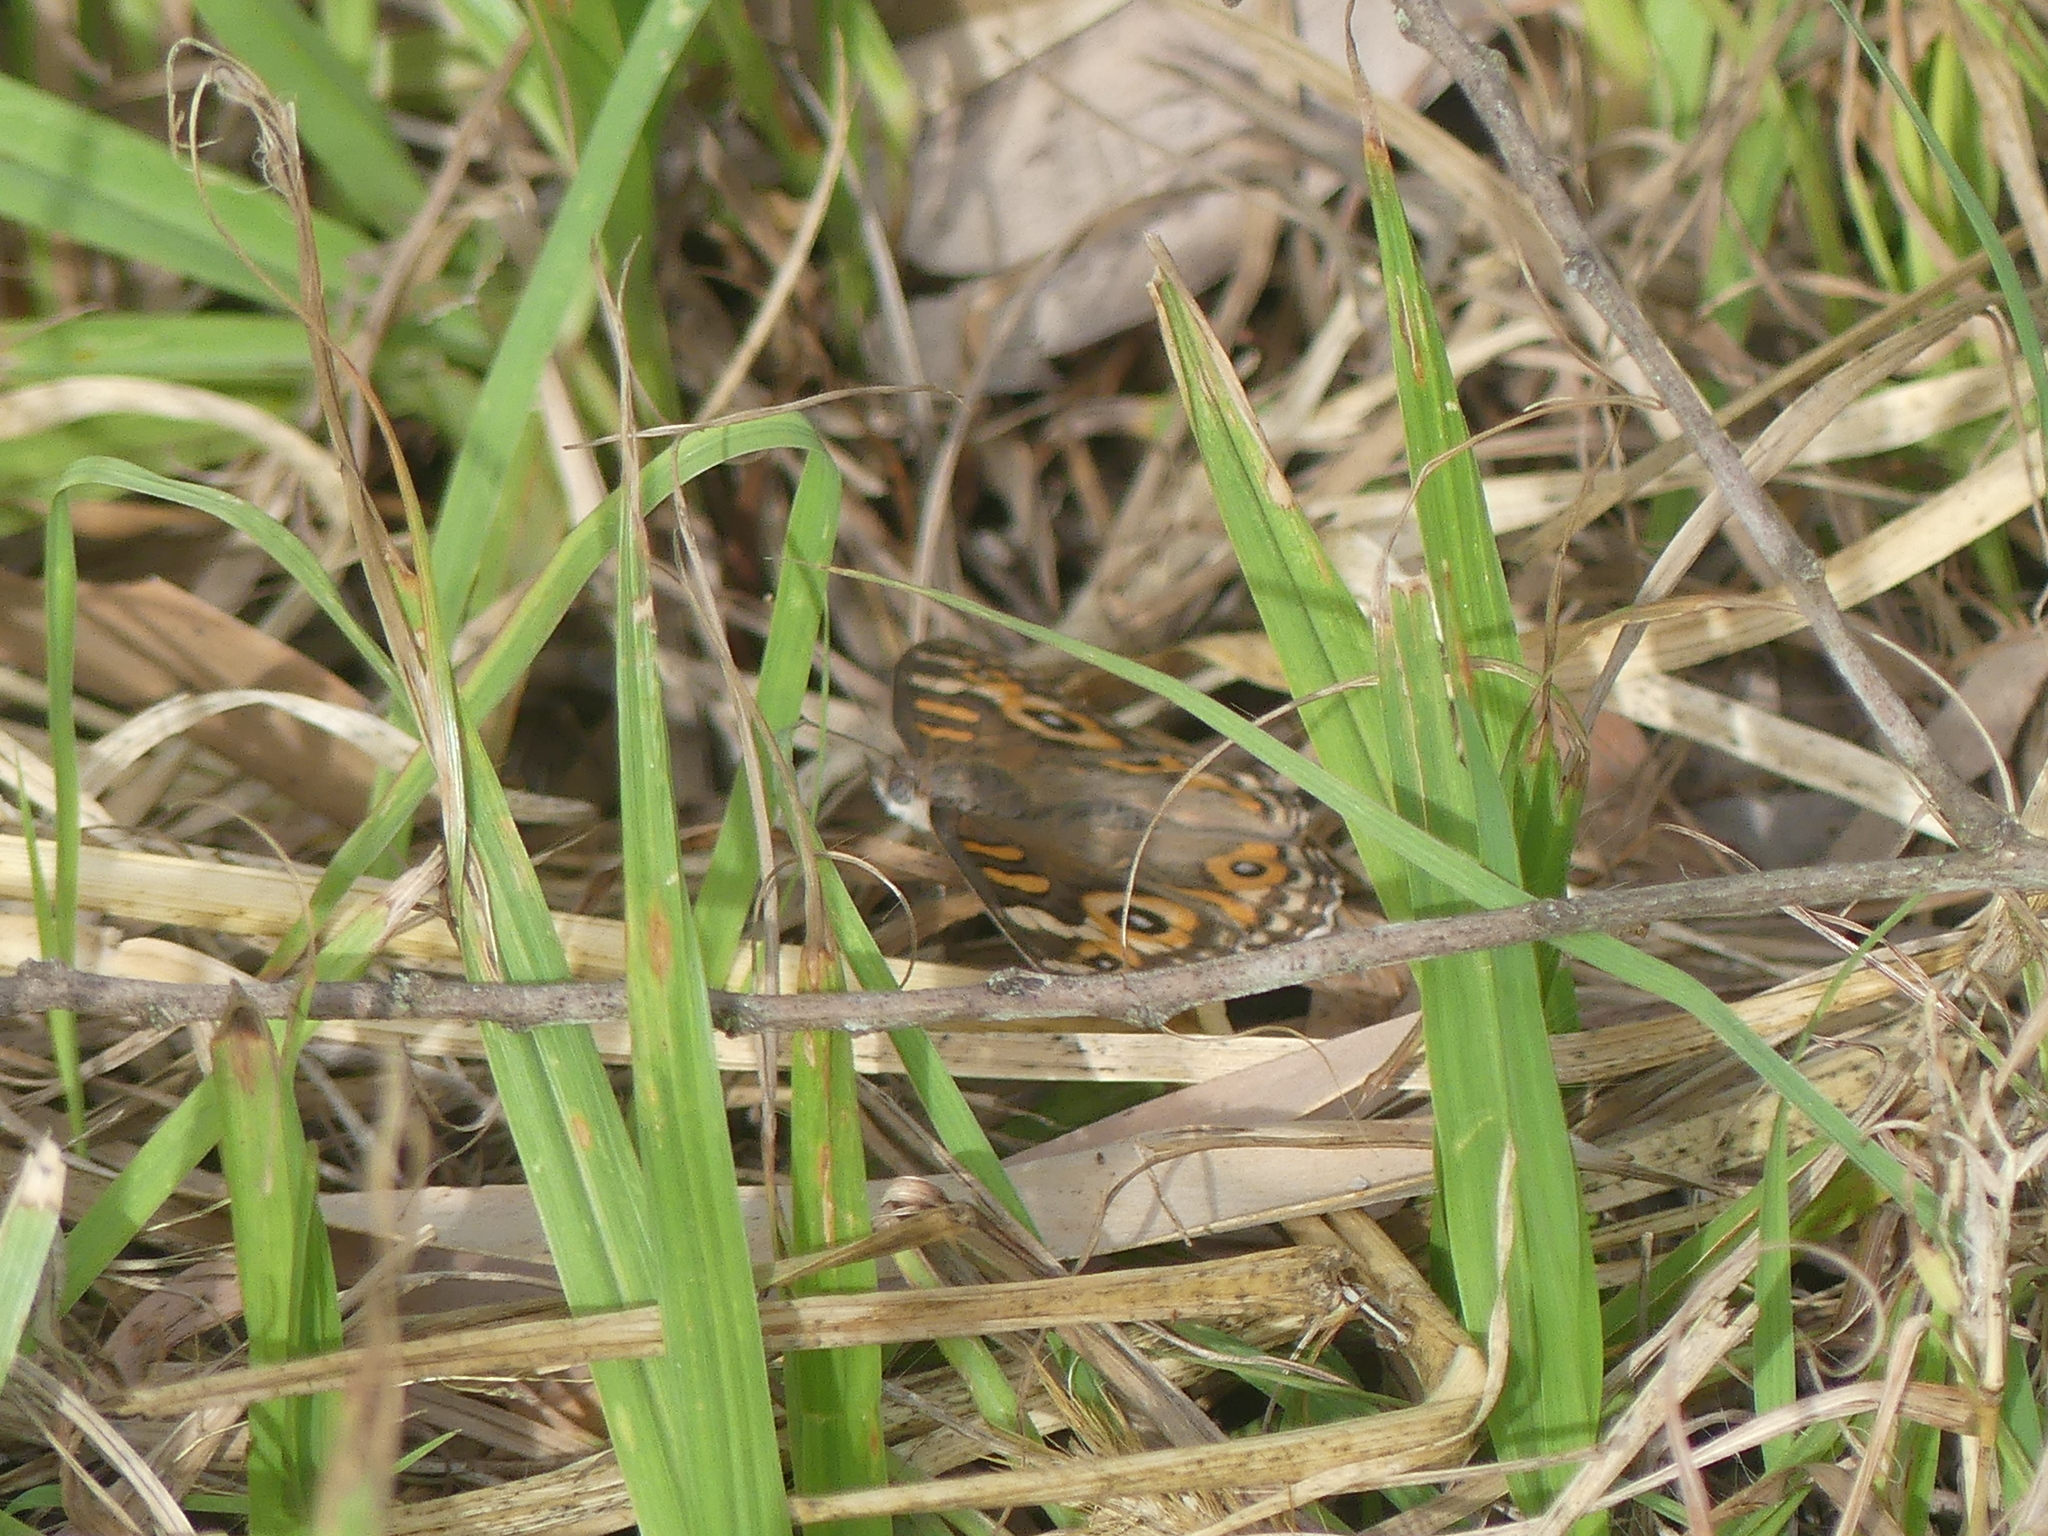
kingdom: Animalia
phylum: Arthropoda
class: Insecta
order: Lepidoptera
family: Nymphalidae
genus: Junonia
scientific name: Junonia villida
